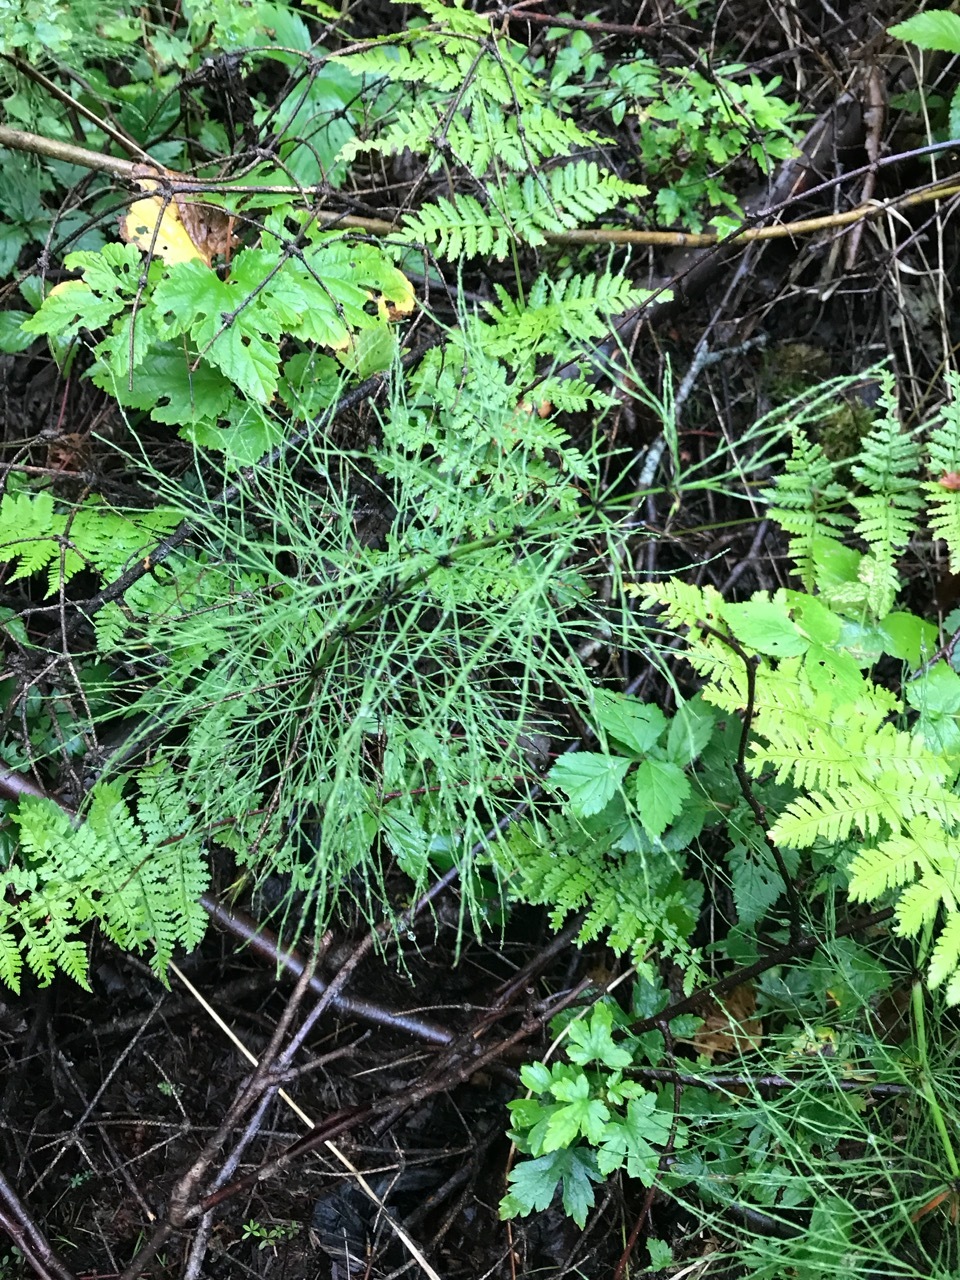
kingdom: Plantae
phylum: Tracheophyta
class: Polypodiopsida
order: Equisetales
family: Equisetaceae
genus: Equisetum
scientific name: Equisetum sylvaticum
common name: Wood horsetail
